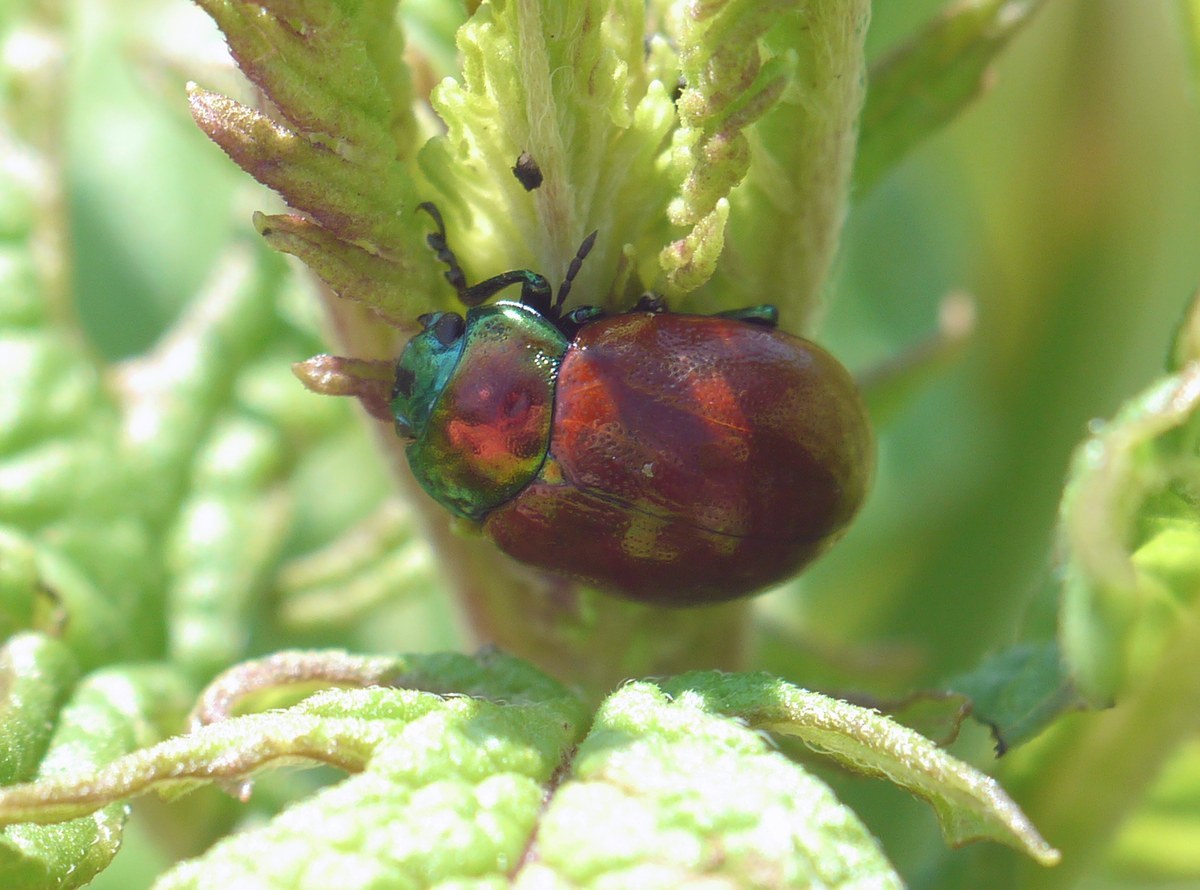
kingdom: Animalia
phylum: Arthropoda
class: Insecta
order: Coleoptera
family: Chrysomelidae
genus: Chrysomela
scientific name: Chrysomela polita
